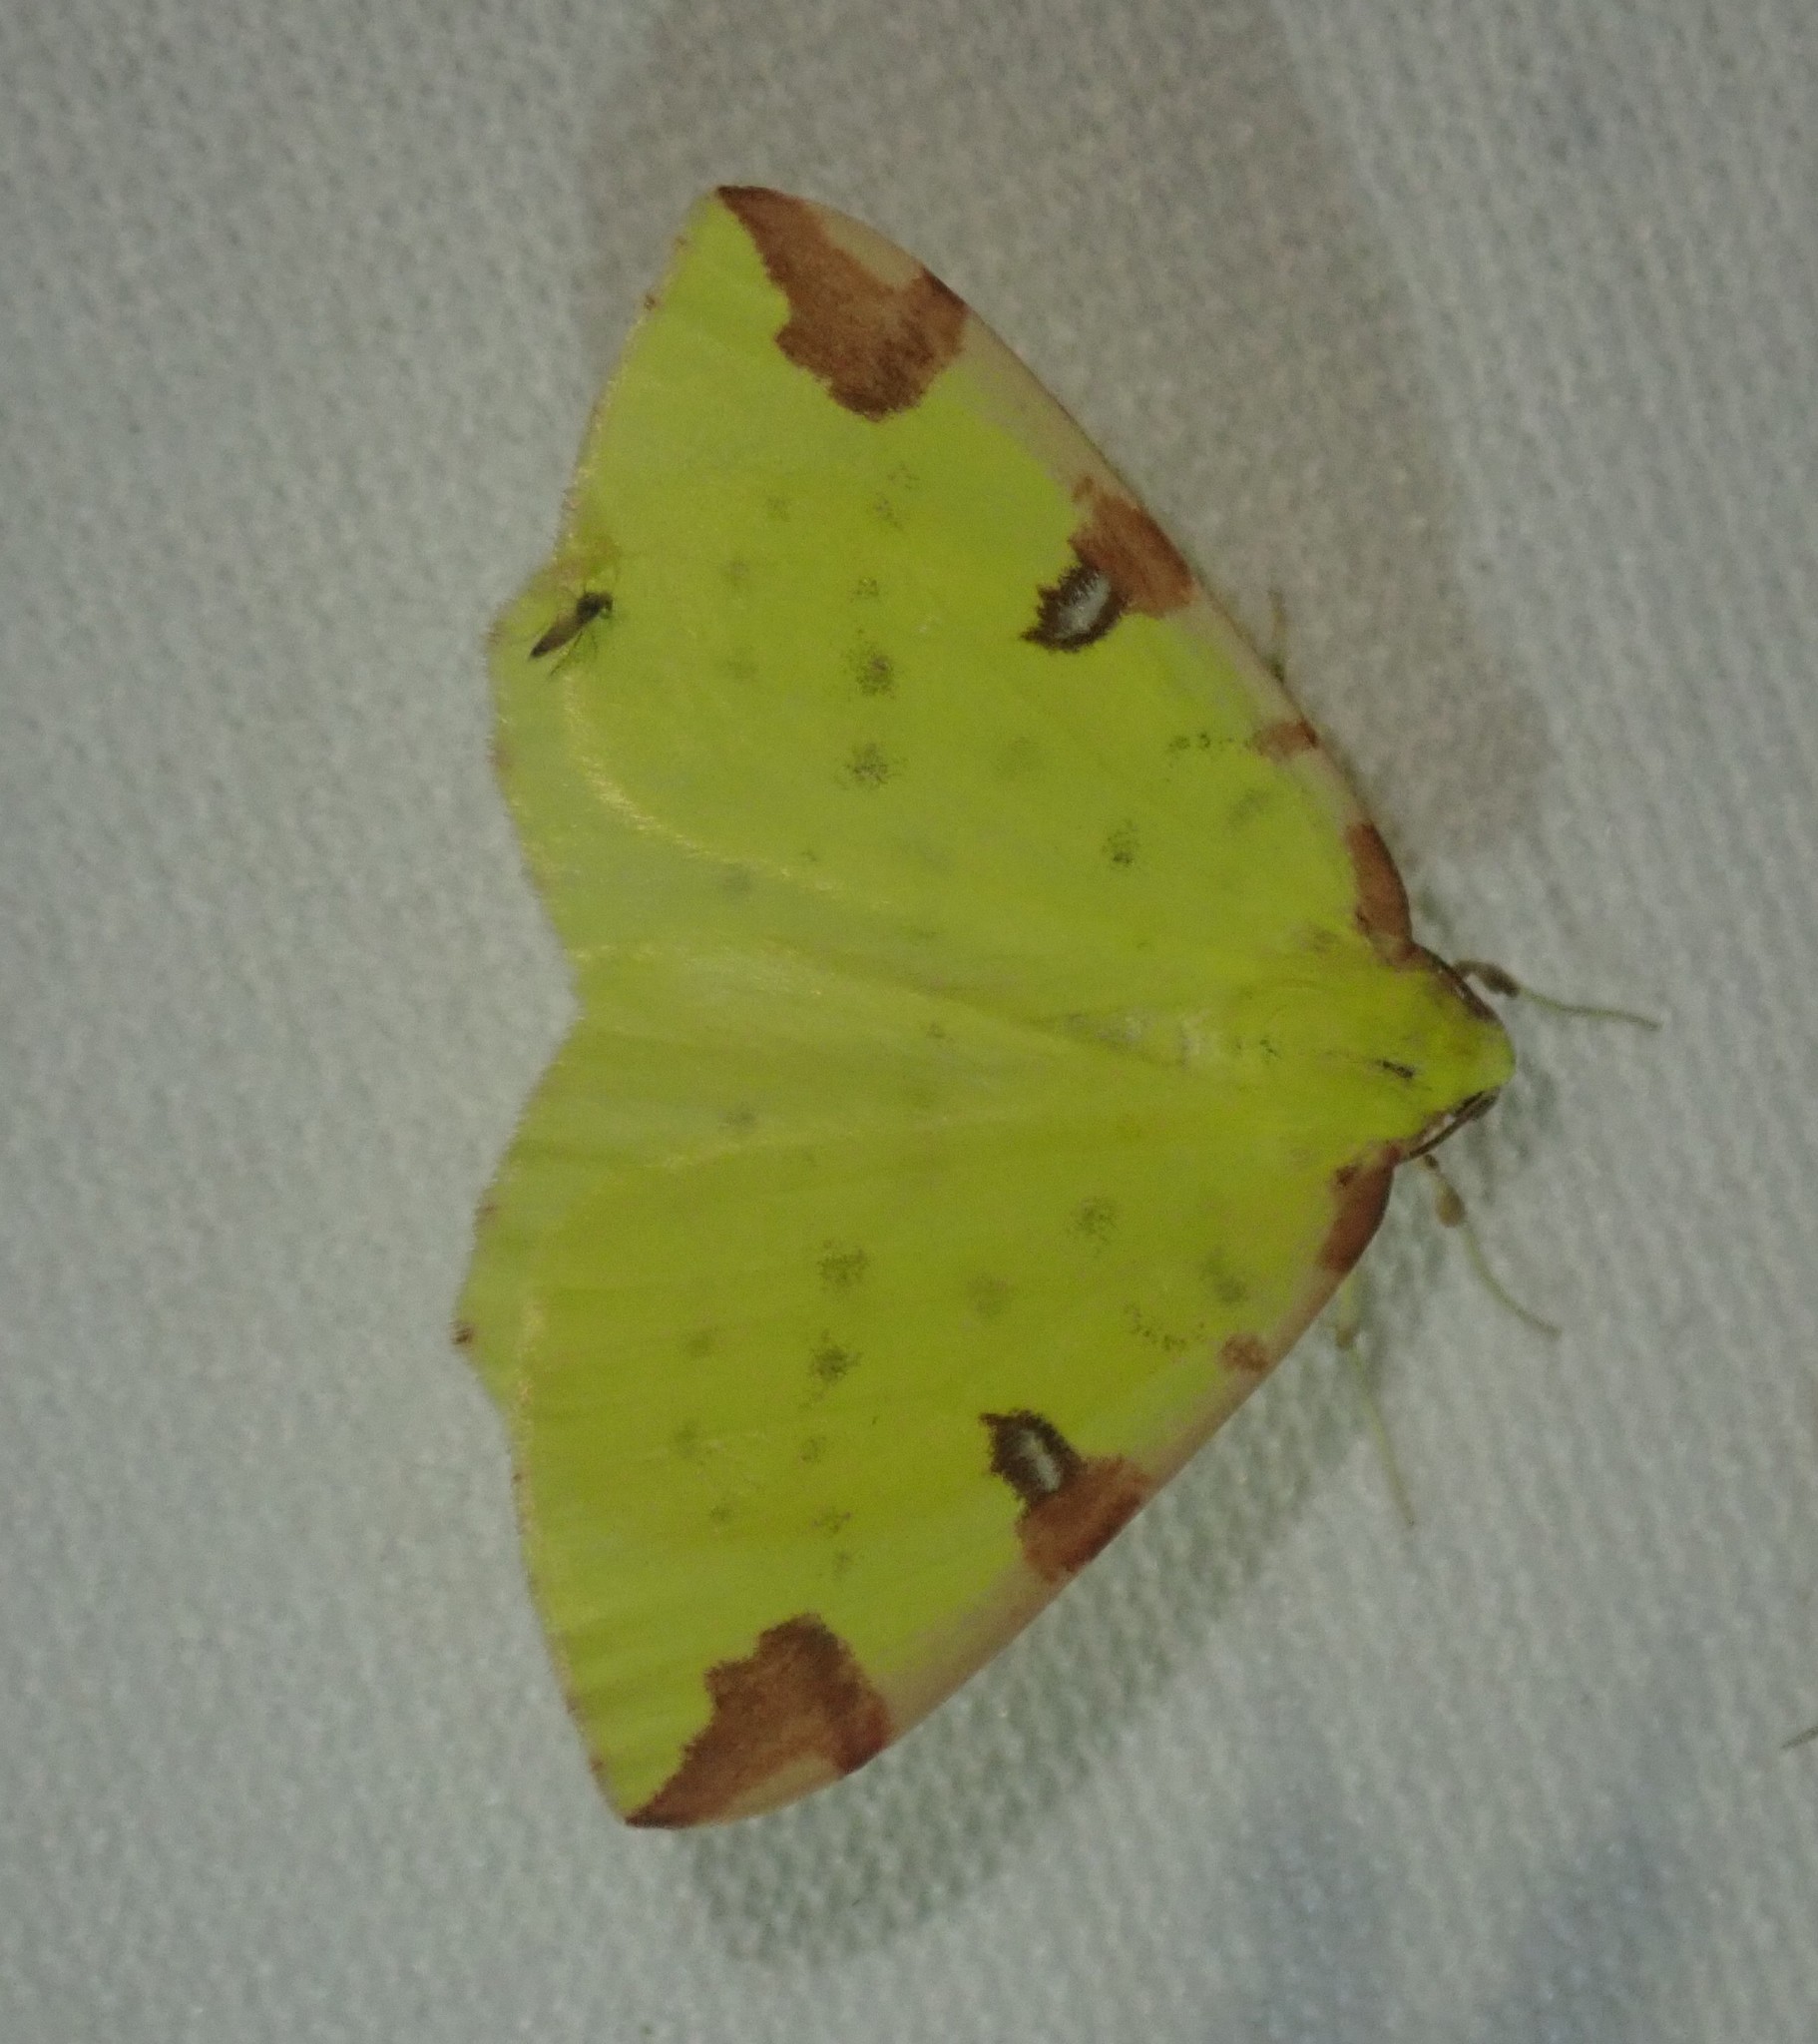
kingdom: Animalia
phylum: Arthropoda
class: Insecta
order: Lepidoptera
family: Geometridae
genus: Opisthograptis
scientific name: Opisthograptis luteolata
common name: Brimstone moth
